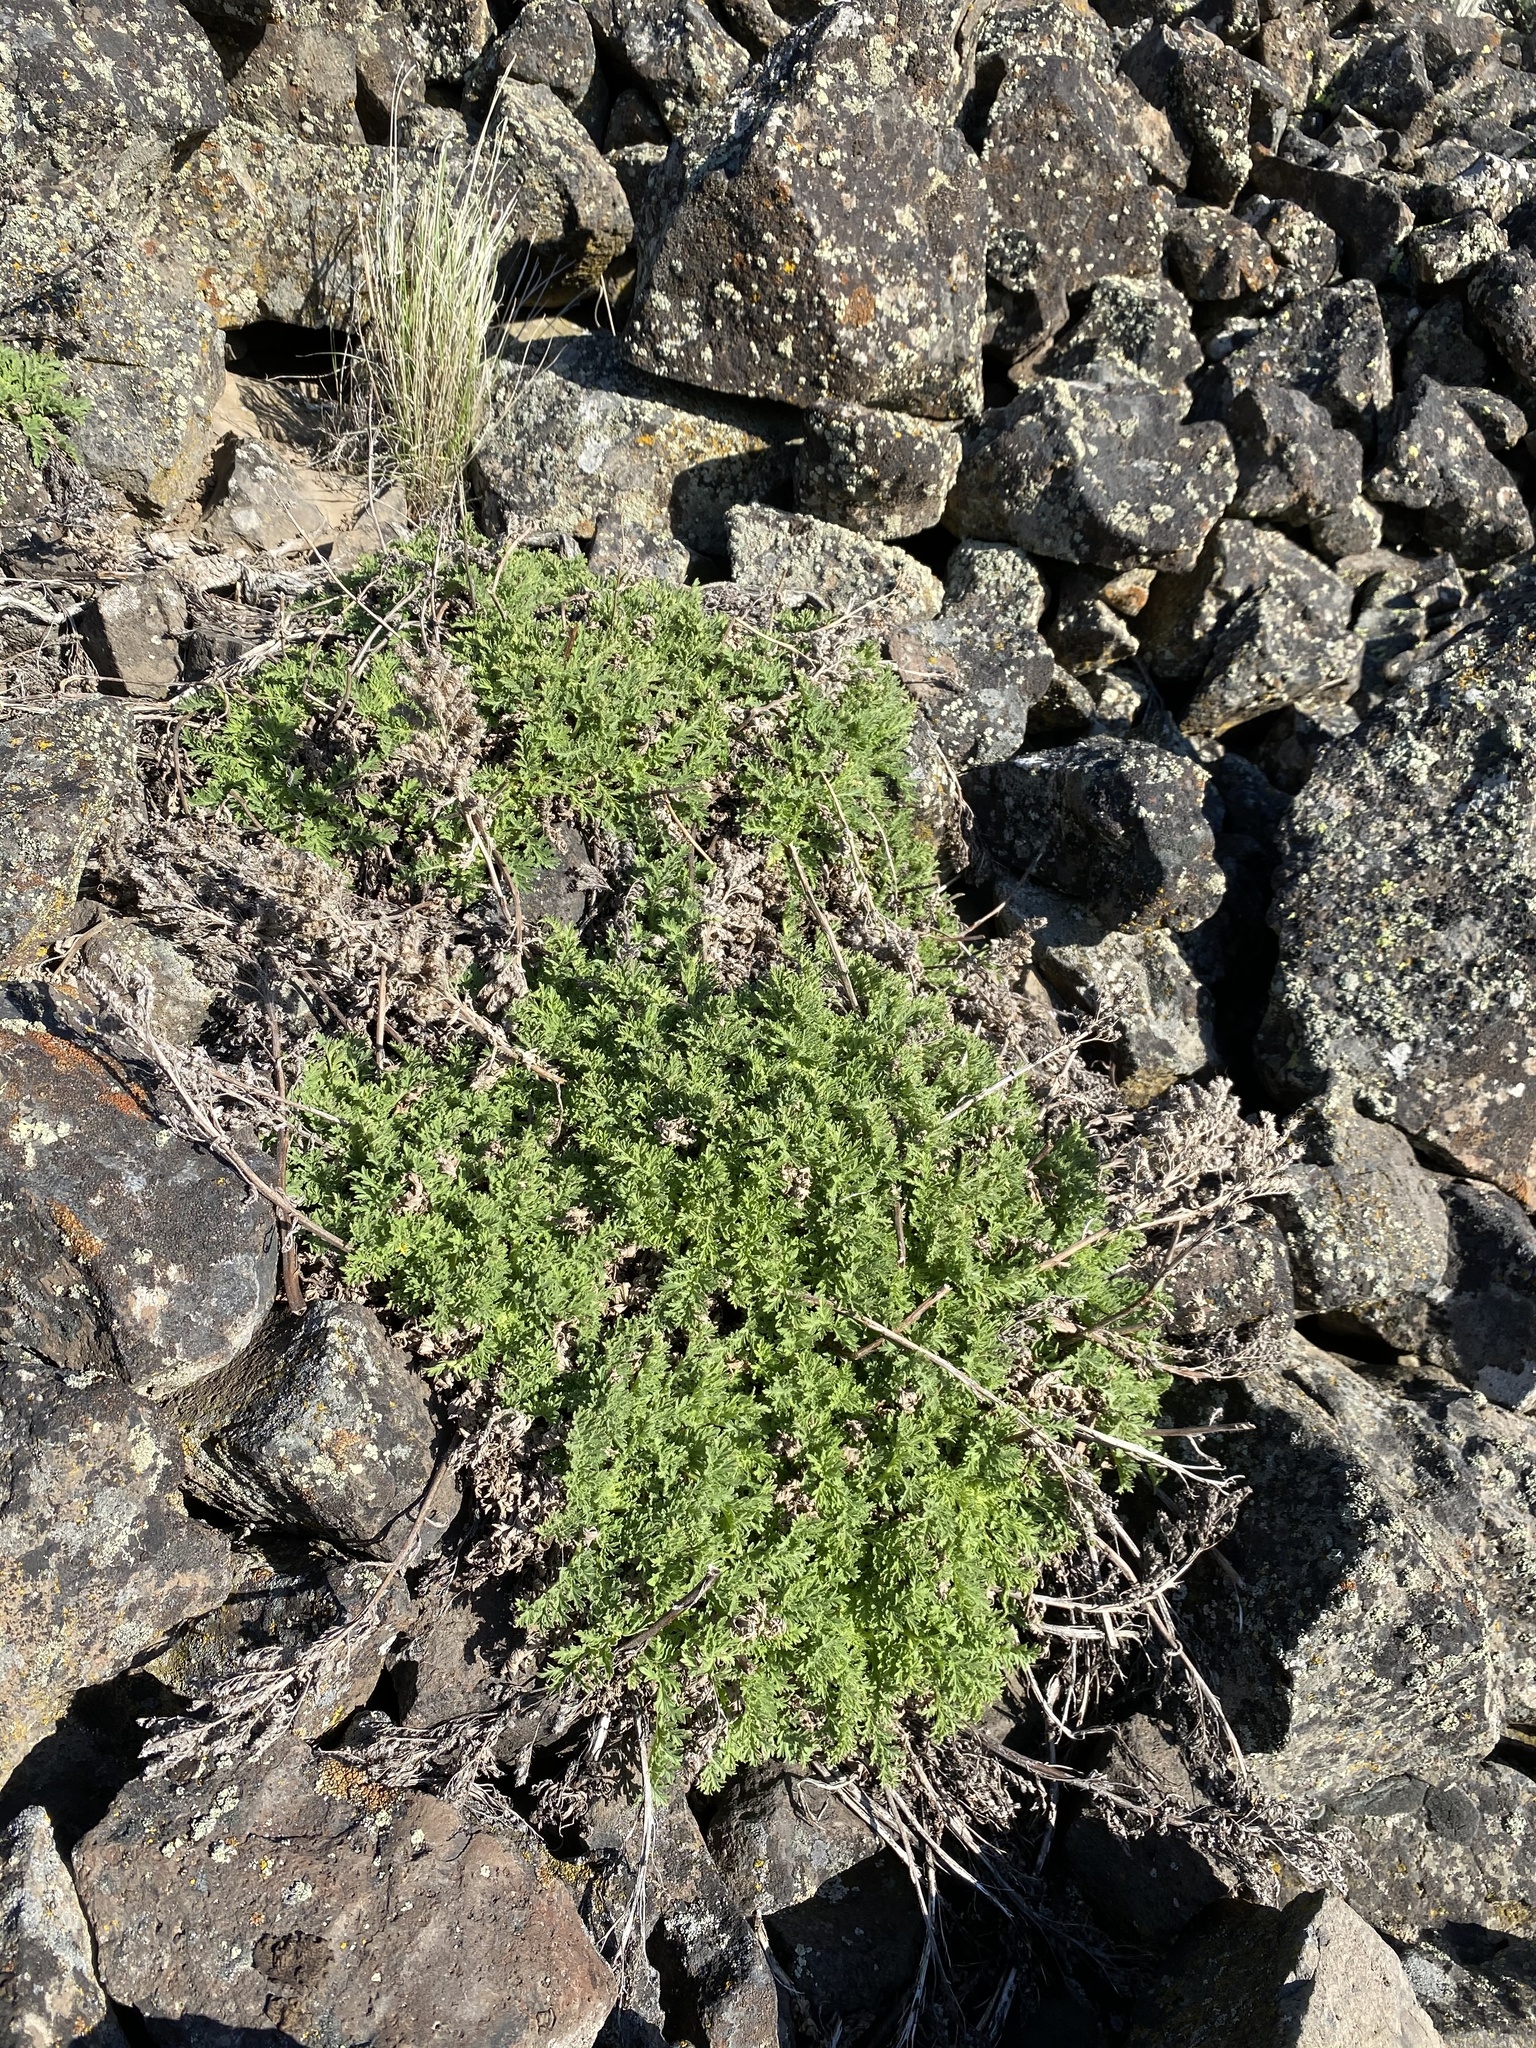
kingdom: Plantae
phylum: Tracheophyta
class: Magnoliopsida
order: Boraginales
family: Hydrophyllaceae
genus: Phacelia
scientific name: Phacelia lenta
